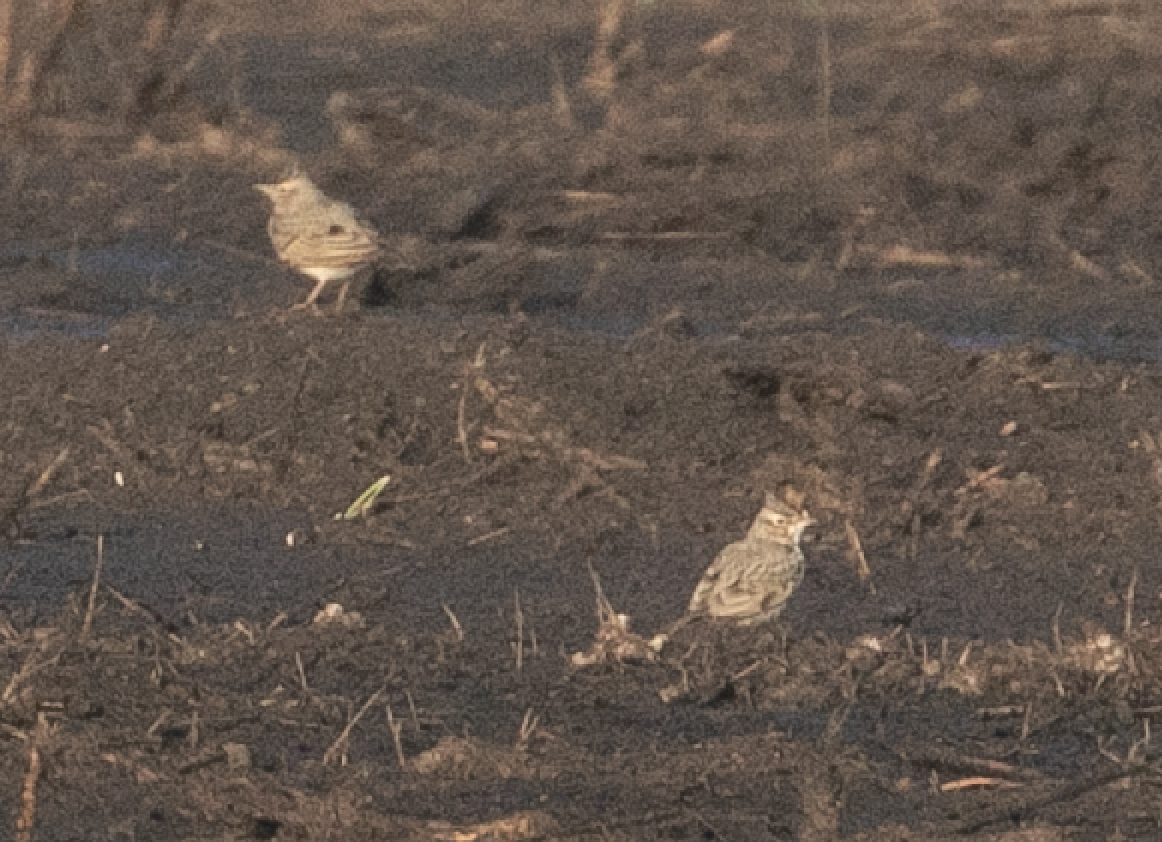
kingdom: Animalia
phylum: Chordata
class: Aves
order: Passeriformes
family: Alaudidae
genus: Galerida
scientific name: Galerida cristata
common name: Crested lark
